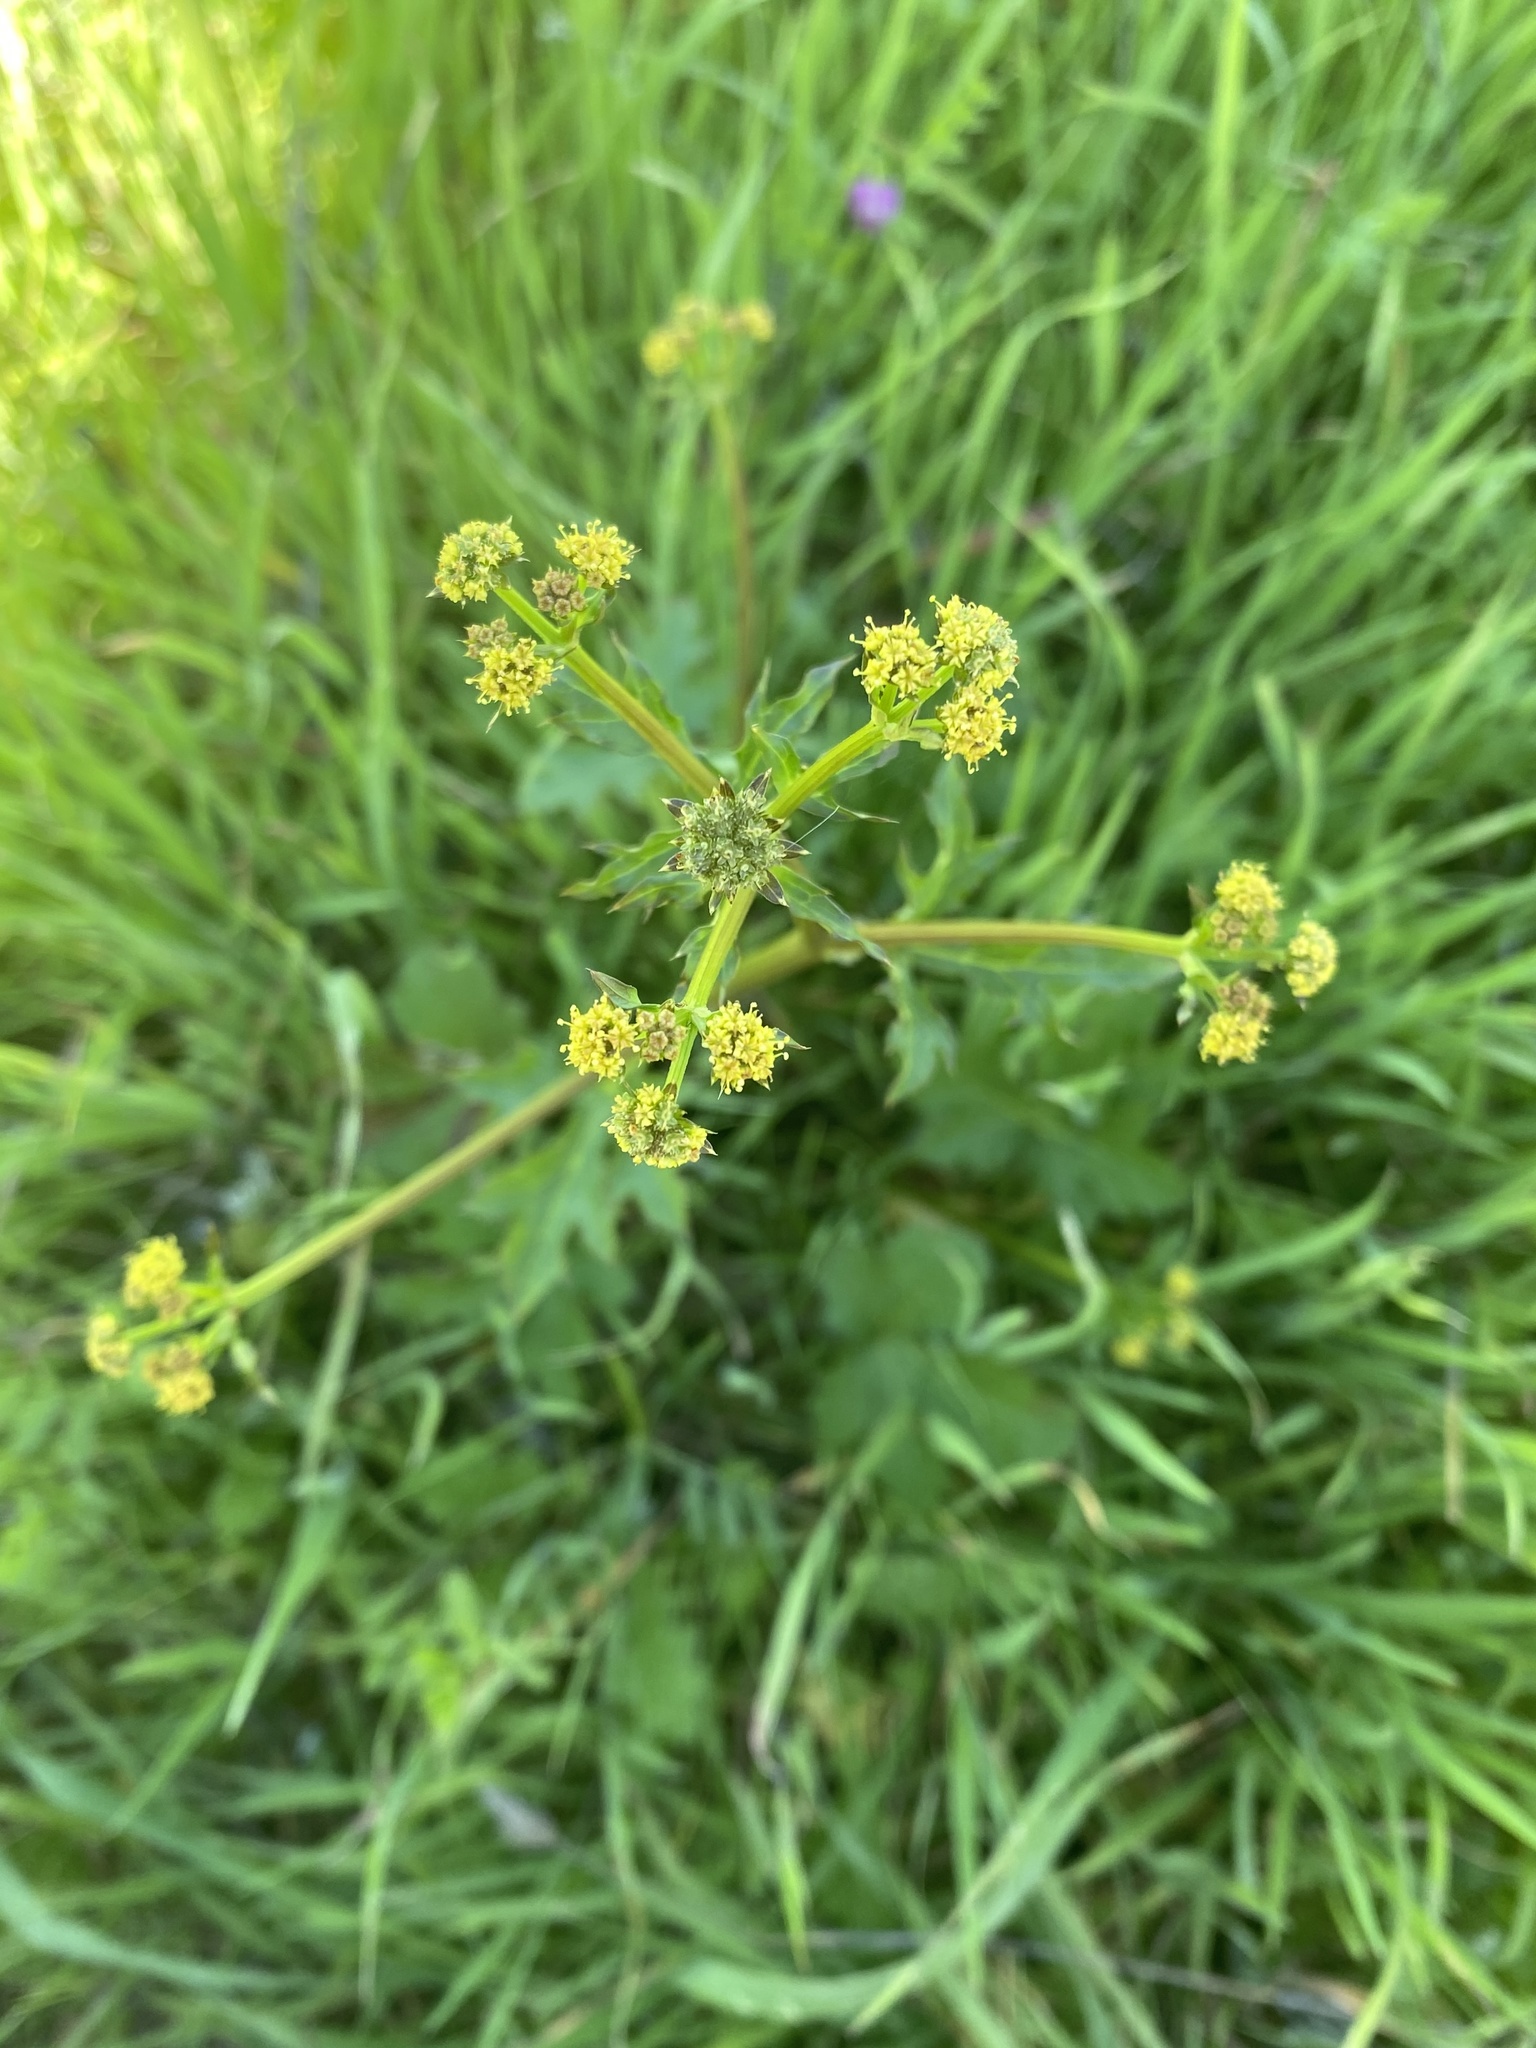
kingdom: Plantae
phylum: Tracheophyta
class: Magnoliopsida
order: Apiales
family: Apiaceae
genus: Sanicula
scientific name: Sanicula crassicaulis
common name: Western snakeroot
